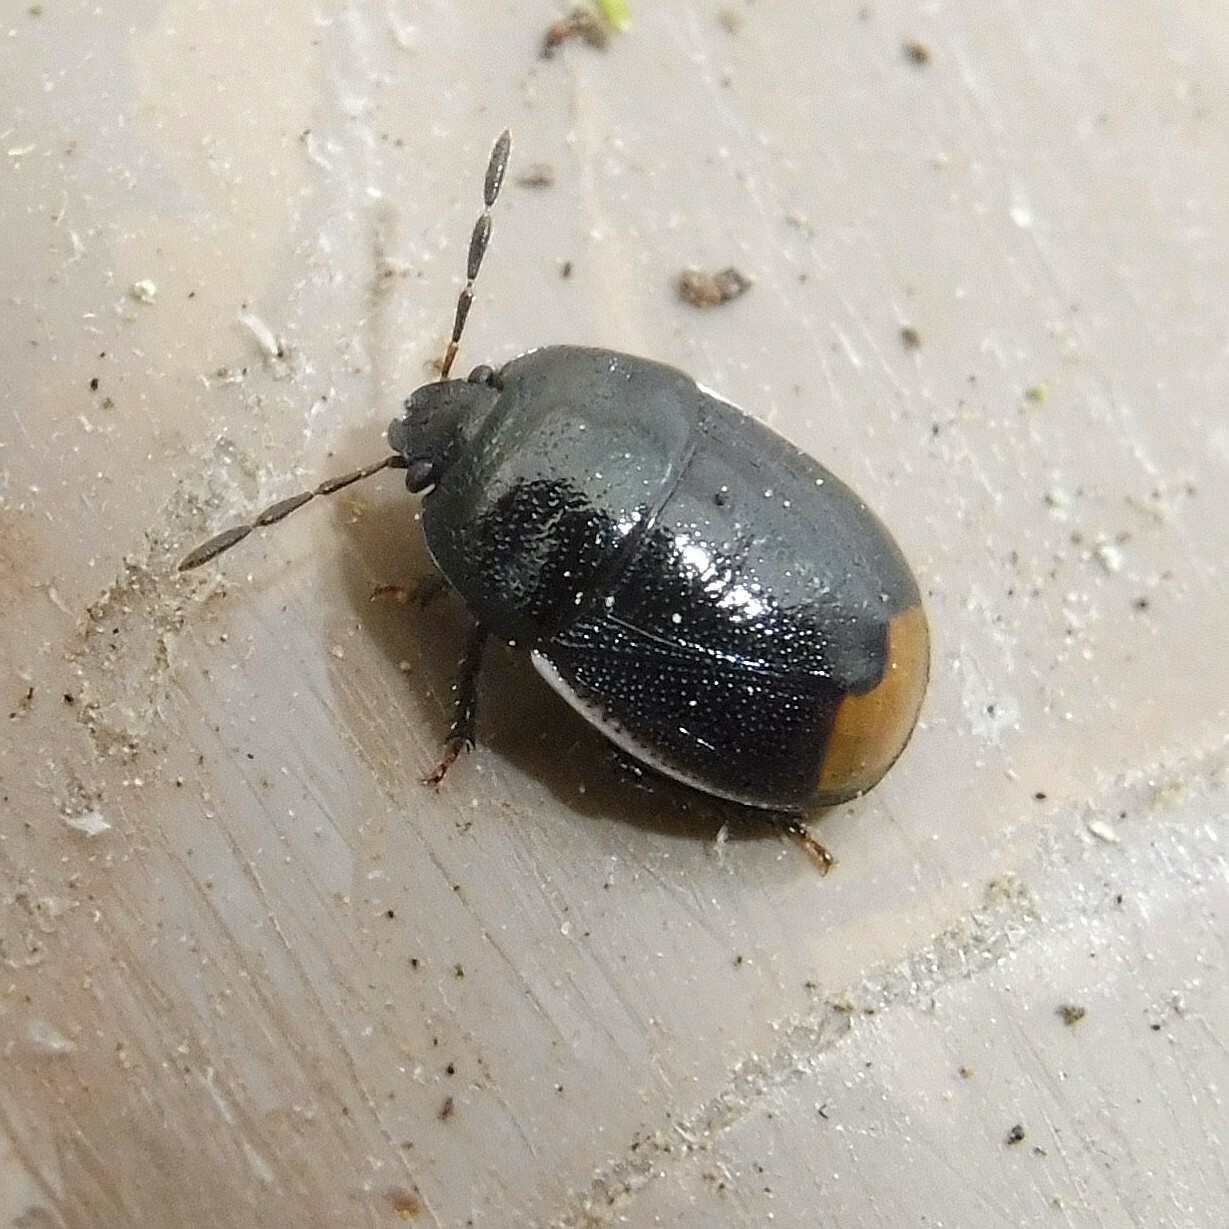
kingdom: Animalia
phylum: Arthropoda
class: Insecta
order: Hemiptera
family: Cydnidae
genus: Legnotus
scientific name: Legnotus limbosus
